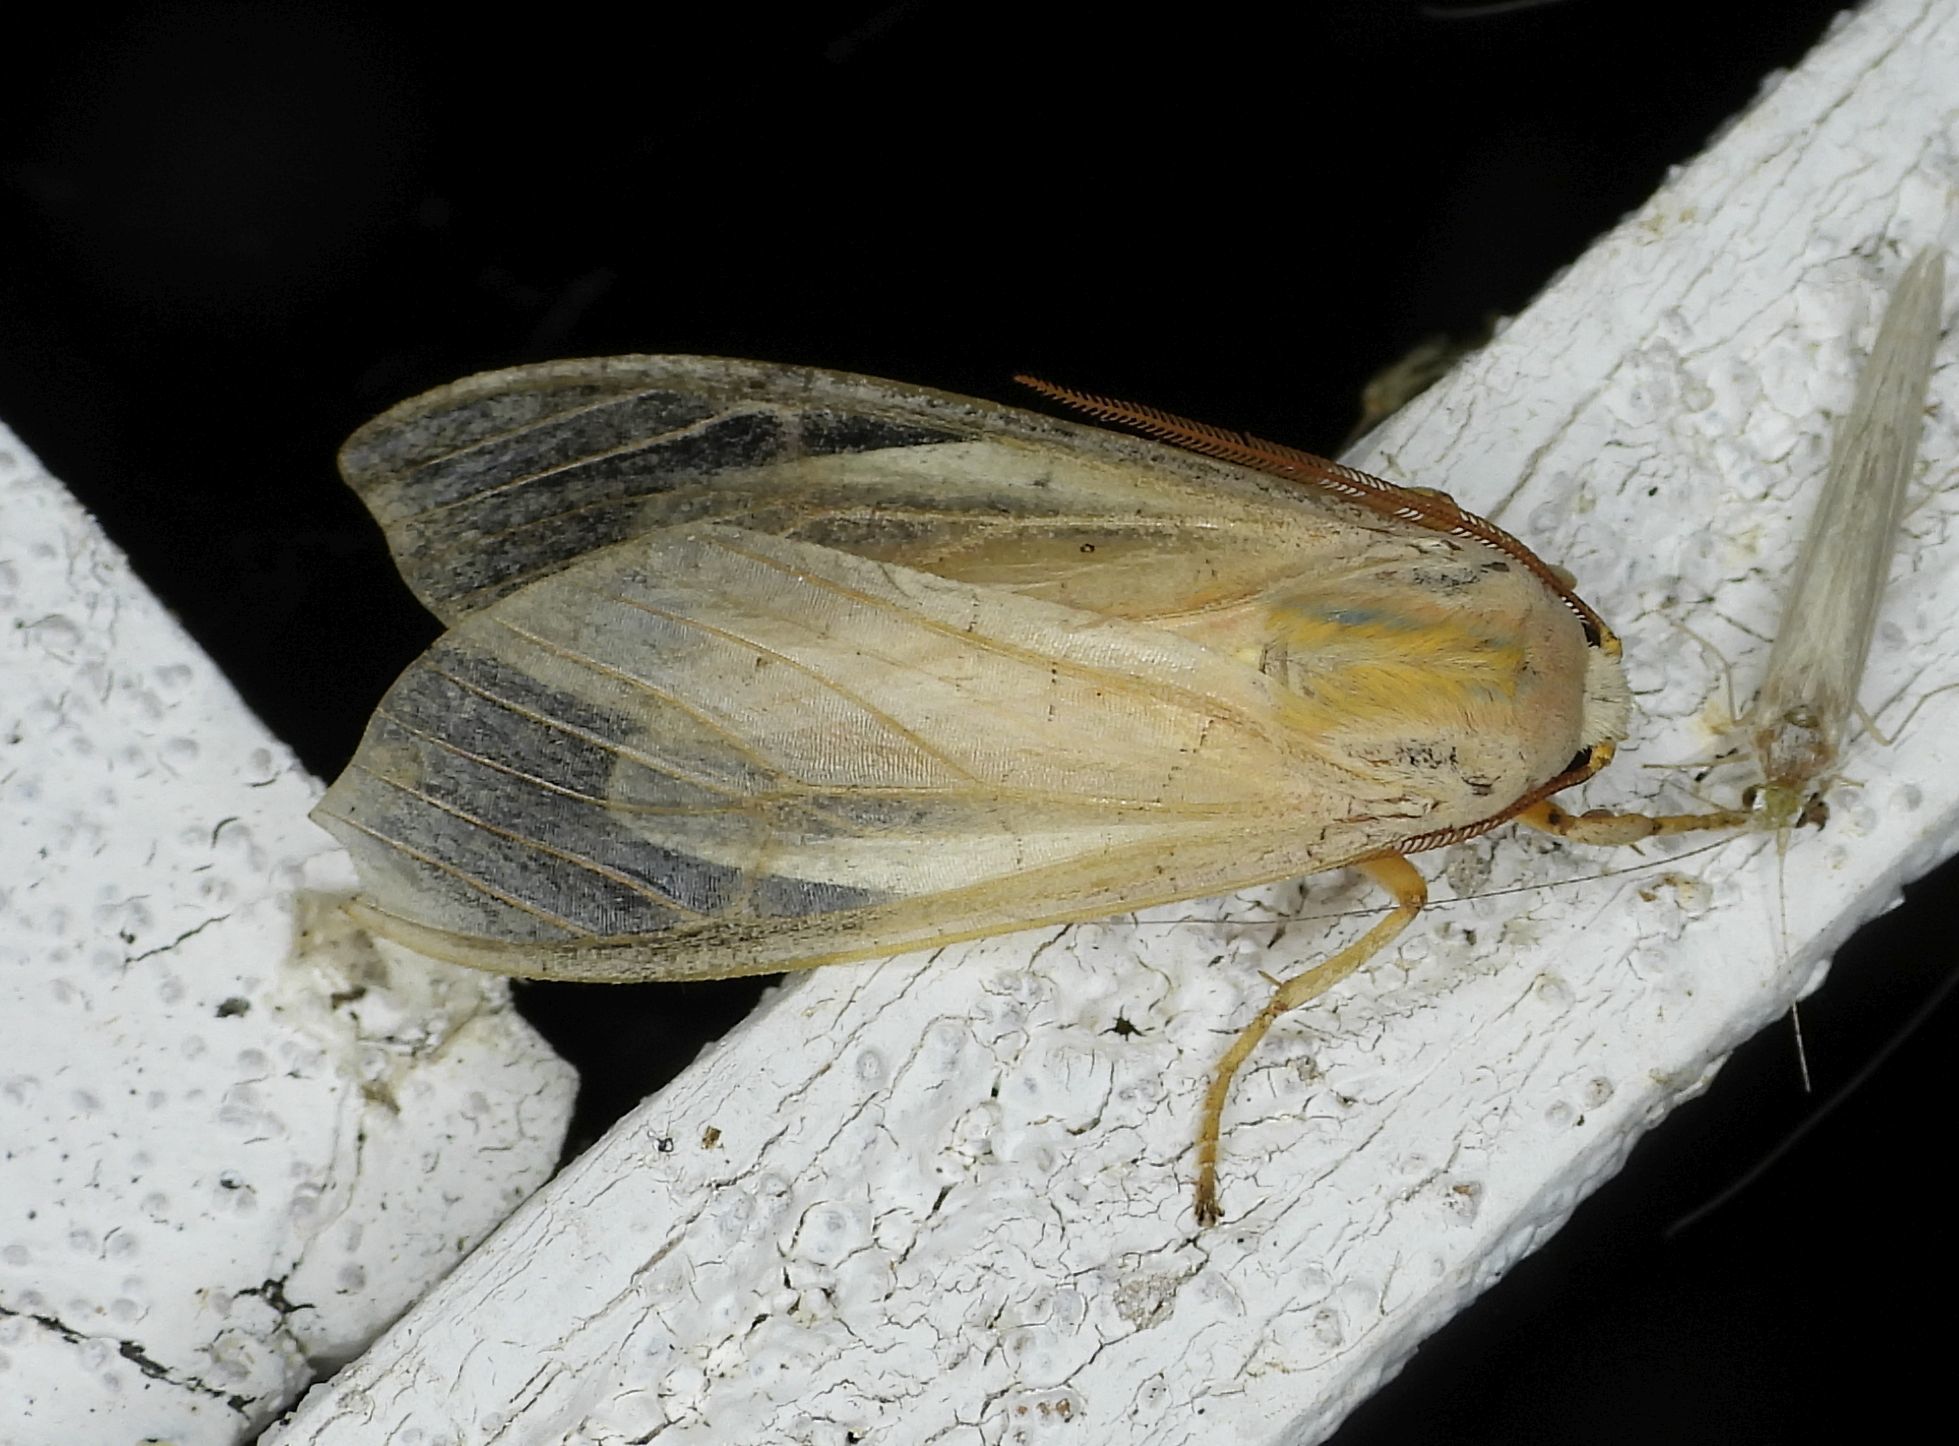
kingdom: Animalia
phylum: Arthropoda
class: Insecta
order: Lepidoptera
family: Erebidae
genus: Halysidota
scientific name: Halysidota tessellaris
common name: Banded tussock moth
